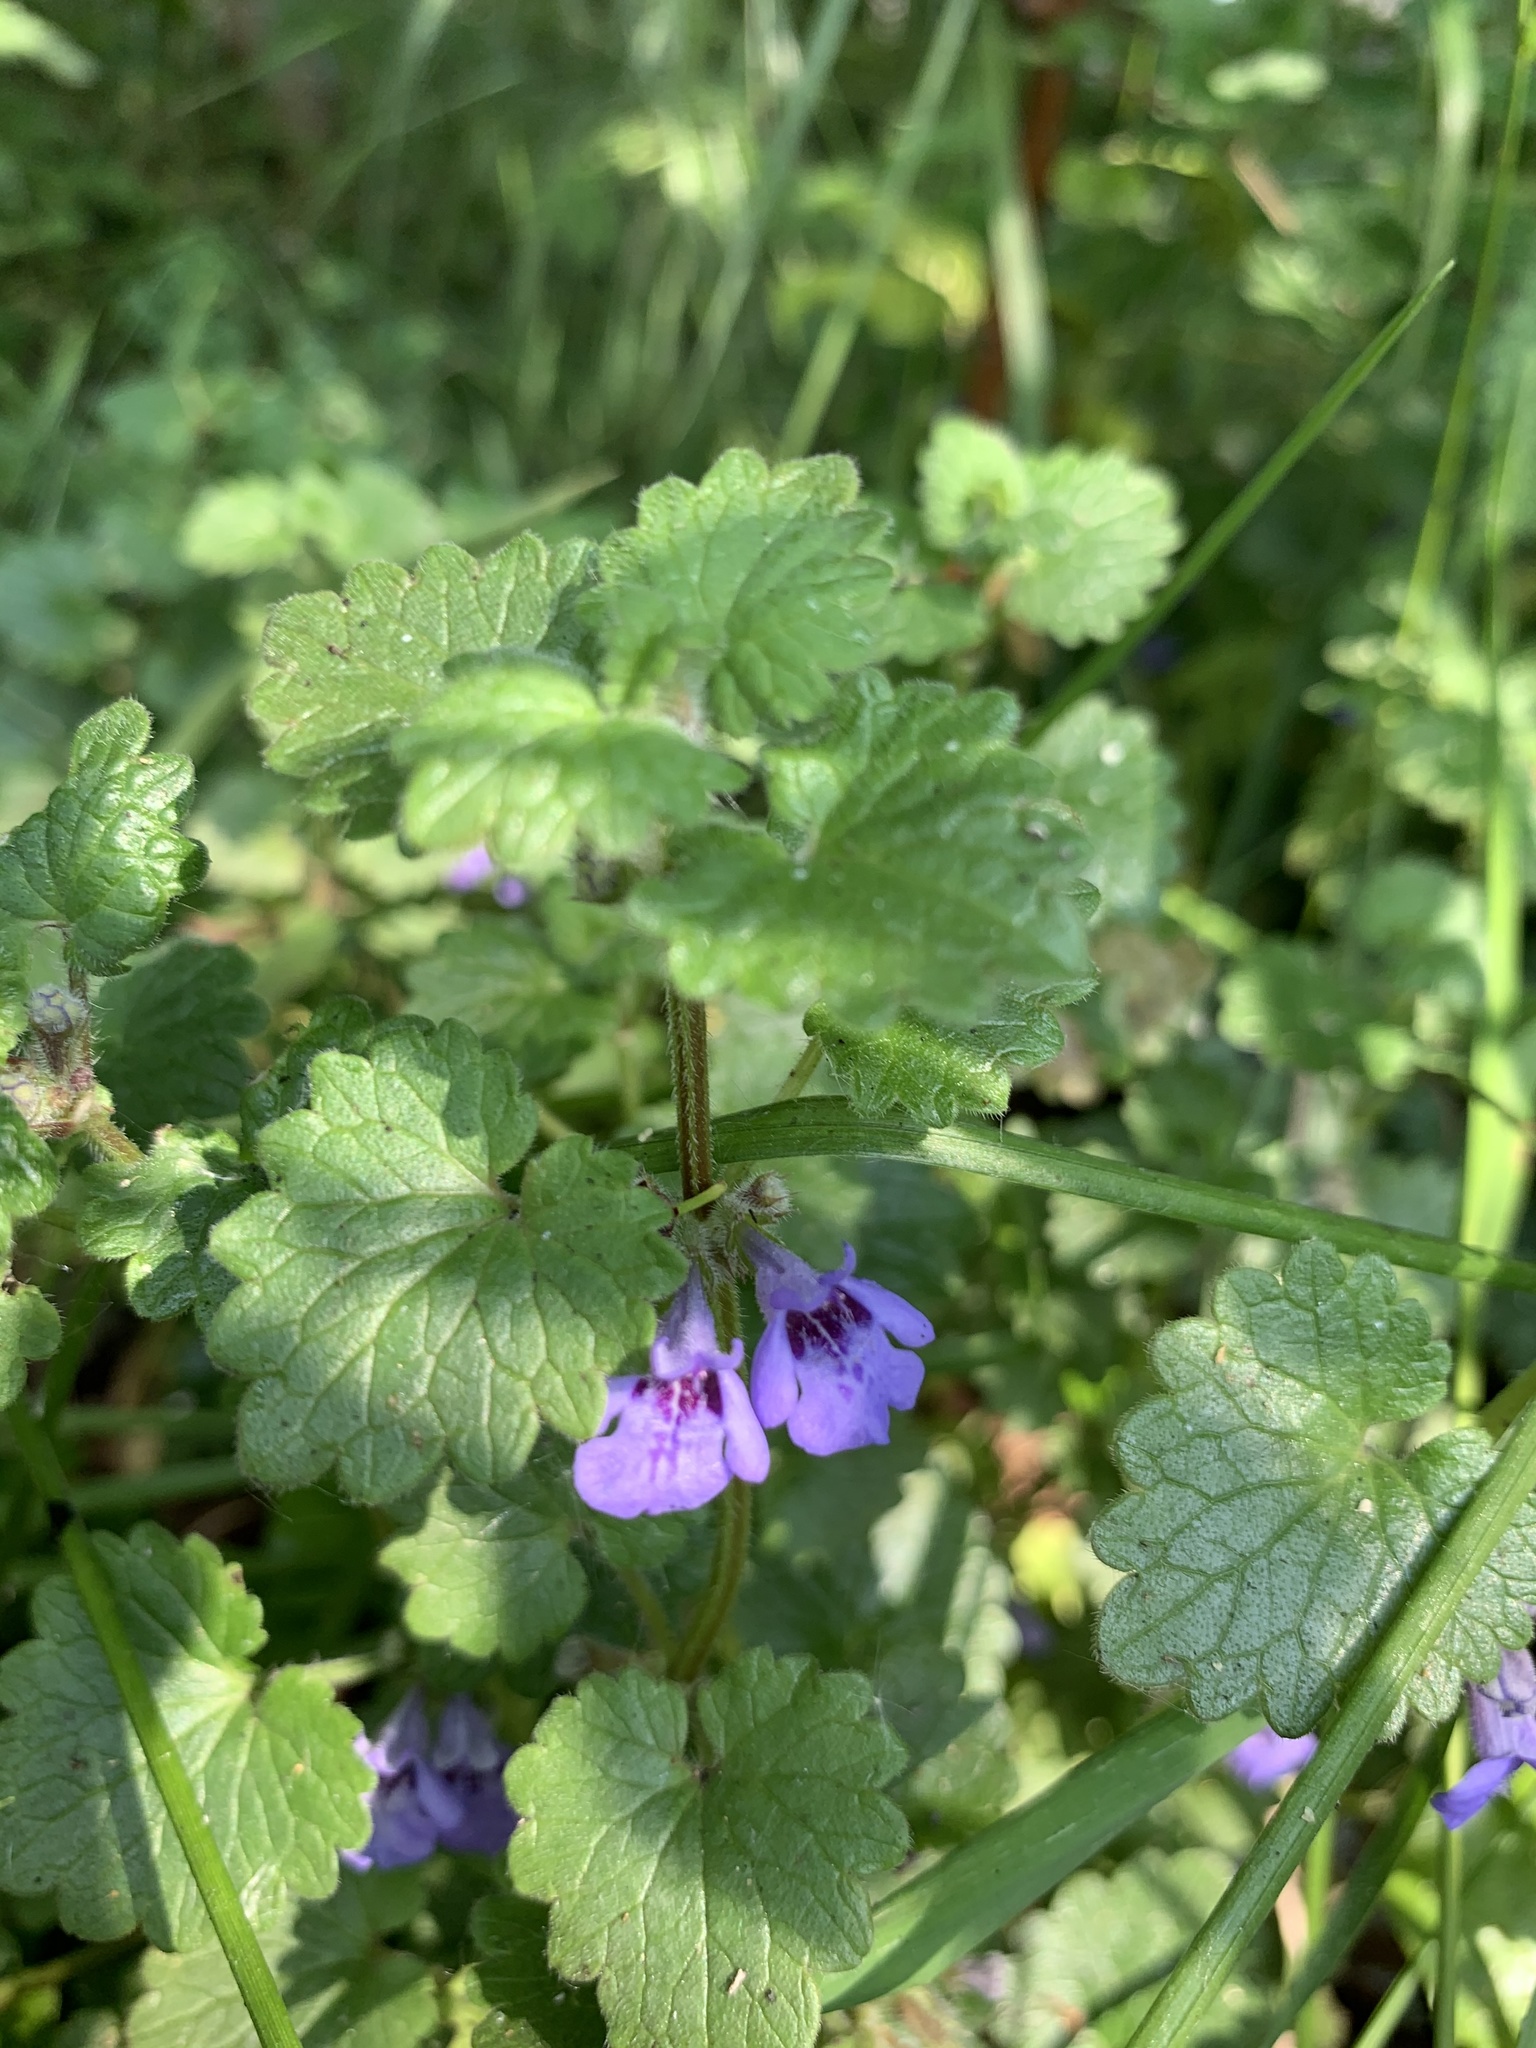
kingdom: Plantae
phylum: Tracheophyta
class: Magnoliopsida
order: Lamiales
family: Lamiaceae
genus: Glechoma
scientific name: Glechoma hederacea
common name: Ground ivy
